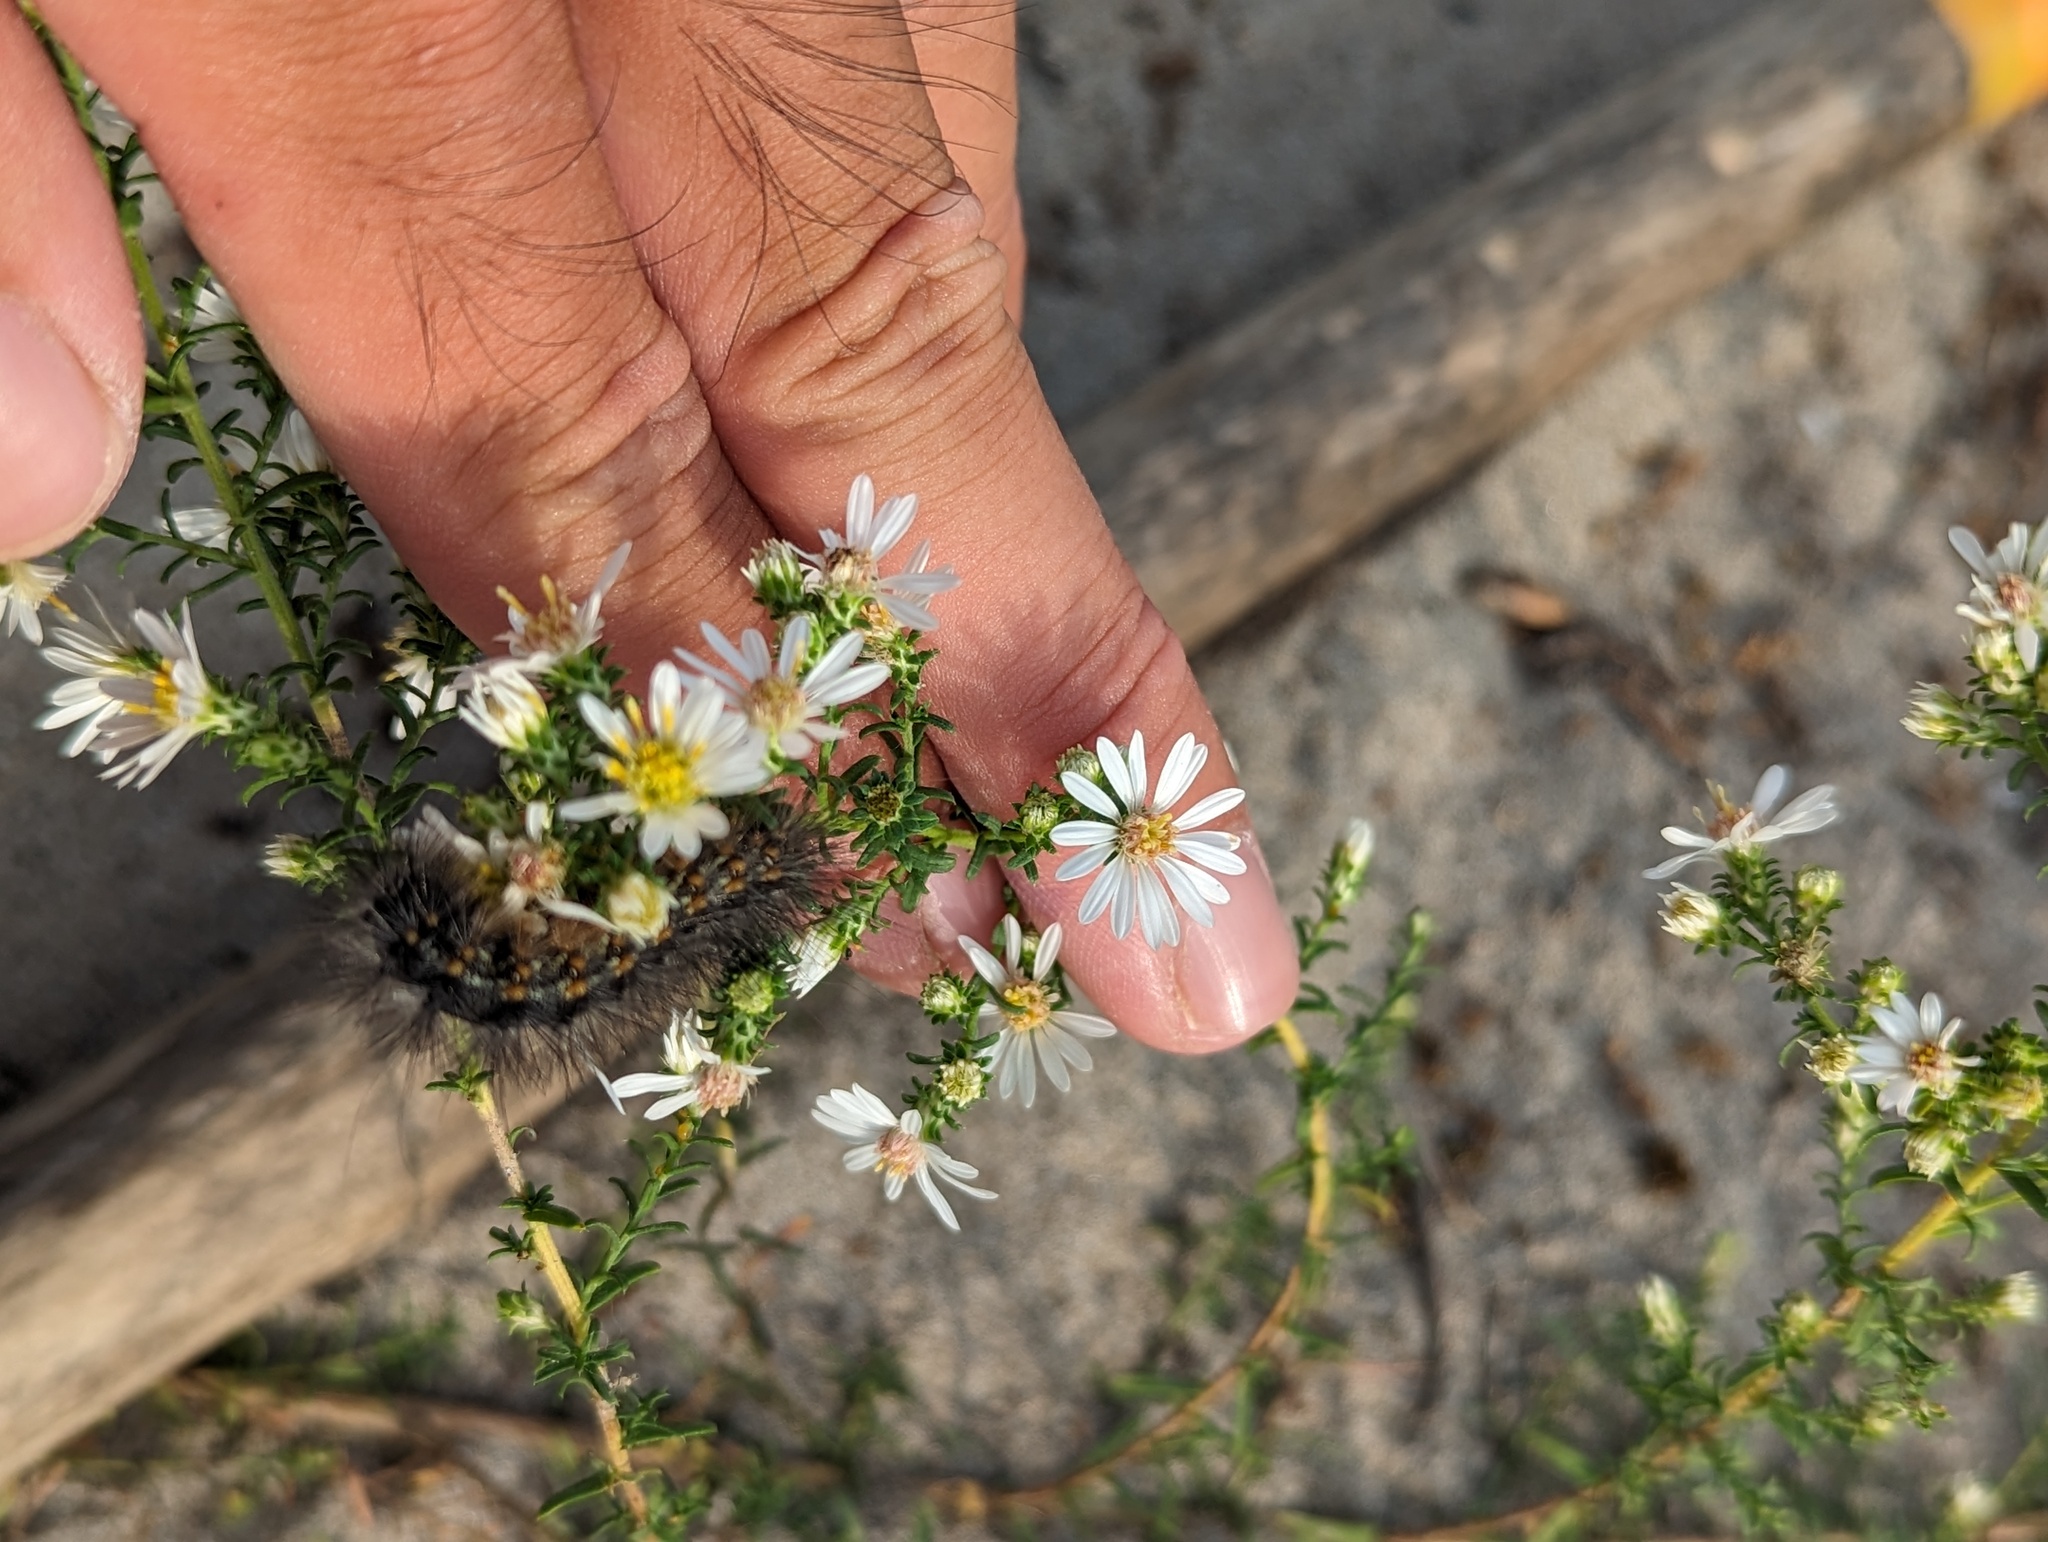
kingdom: Plantae
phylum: Tracheophyta
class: Magnoliopsida
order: Asterales
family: Asteraceae
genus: Symphyotrichum
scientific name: Symphyotrichum ericoides
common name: Heath aster
